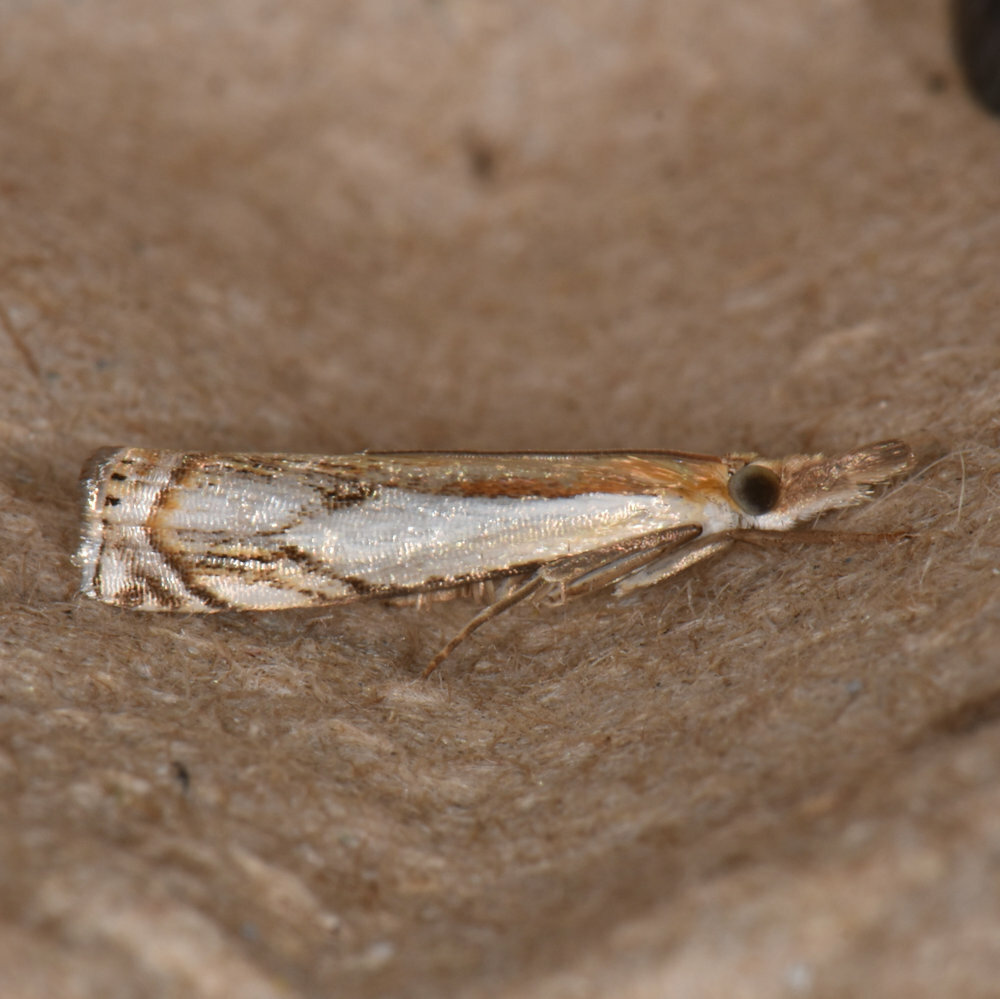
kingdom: Animalia
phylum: Arthropoda
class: Insecta
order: Lepidoptera
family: Crambidae
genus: Crambus
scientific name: Crambus agitatellus
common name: Double-banded grass-veneer
